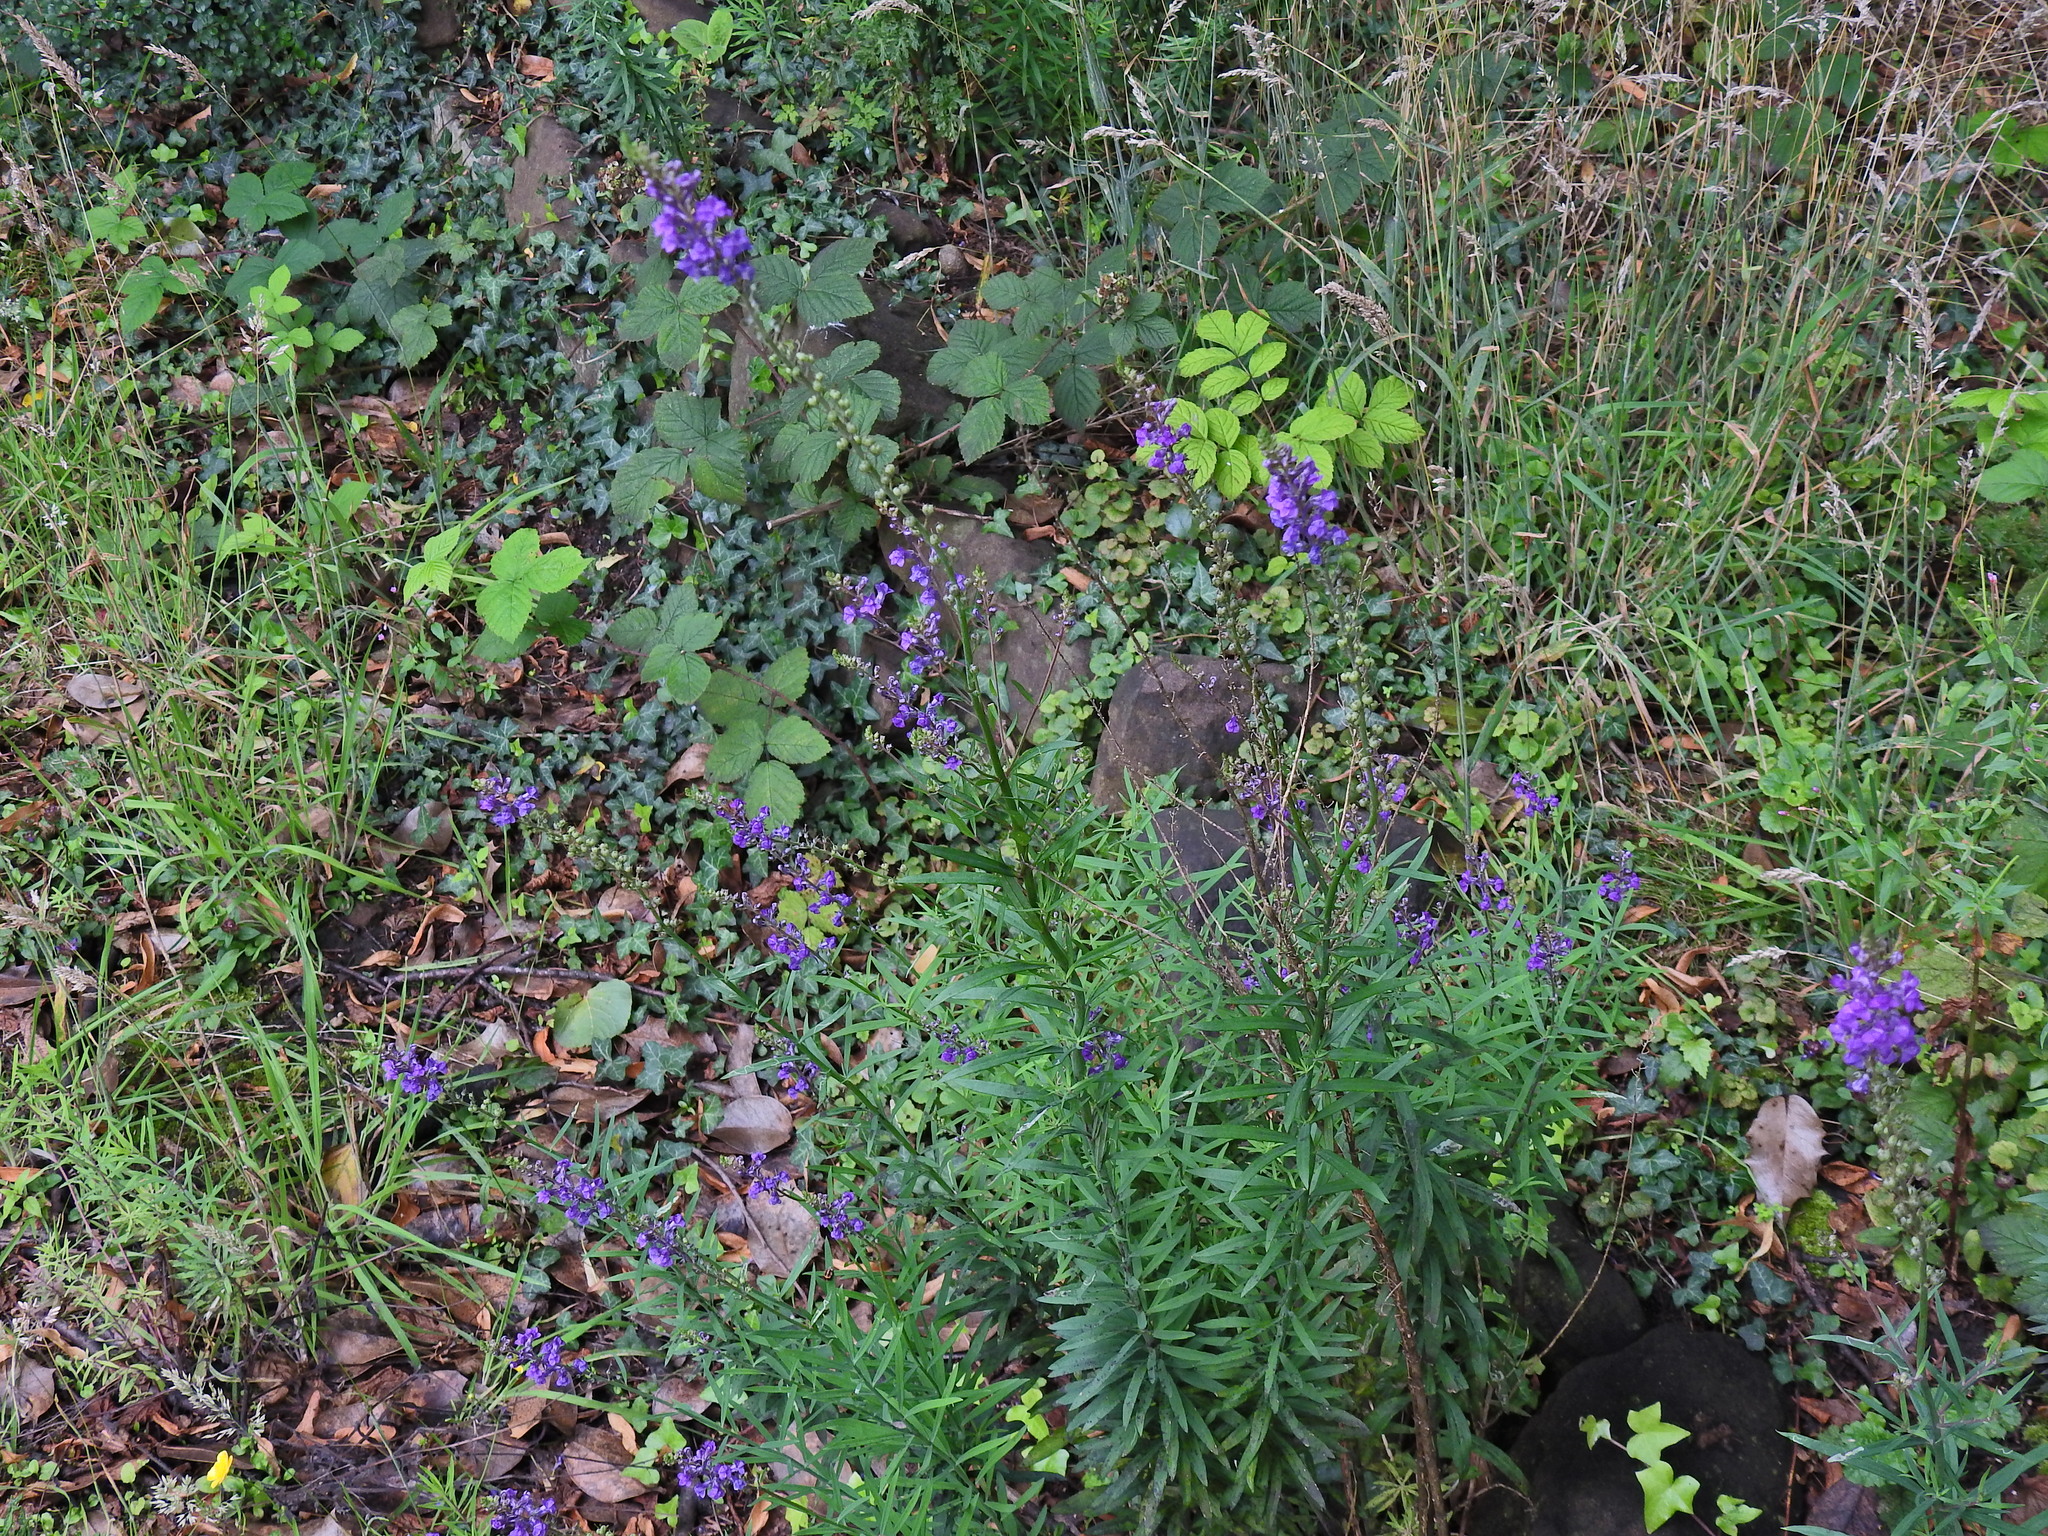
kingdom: Plantae
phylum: Tracheophyta
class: Magnoliopsida
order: Lamiales
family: Plantaginaceae
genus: Linaria
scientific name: Linaria purpurea
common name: Purple toadflax
